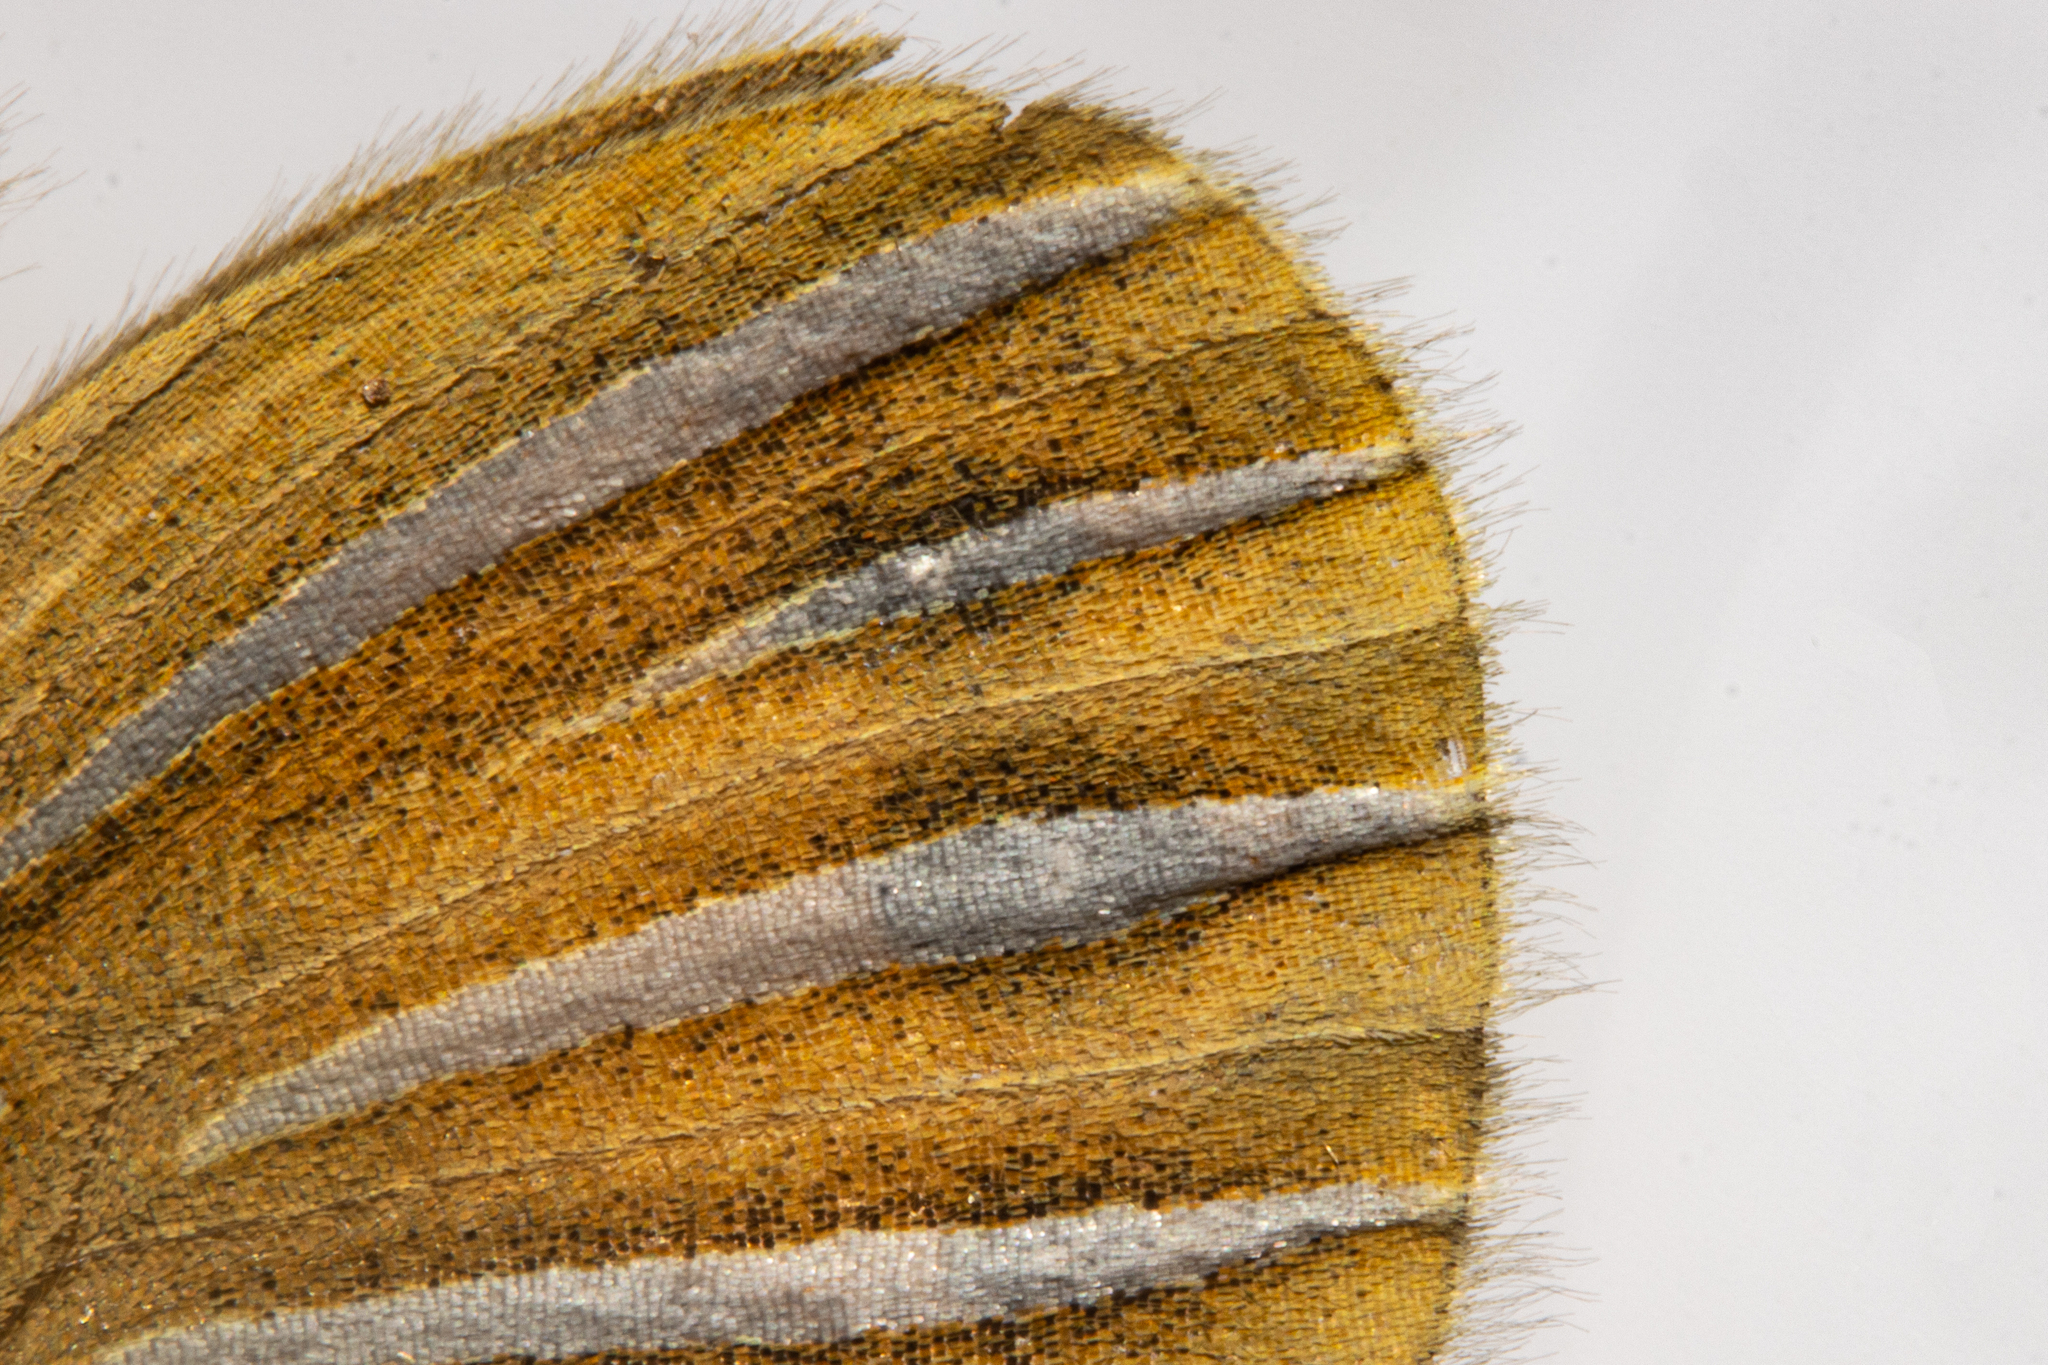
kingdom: Animalia
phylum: Arthropoda
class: Insecta
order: Lepidoptera
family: Nymphalidae
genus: Argyrophenga
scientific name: Argyrophenga janitae
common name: Janita's tussock
